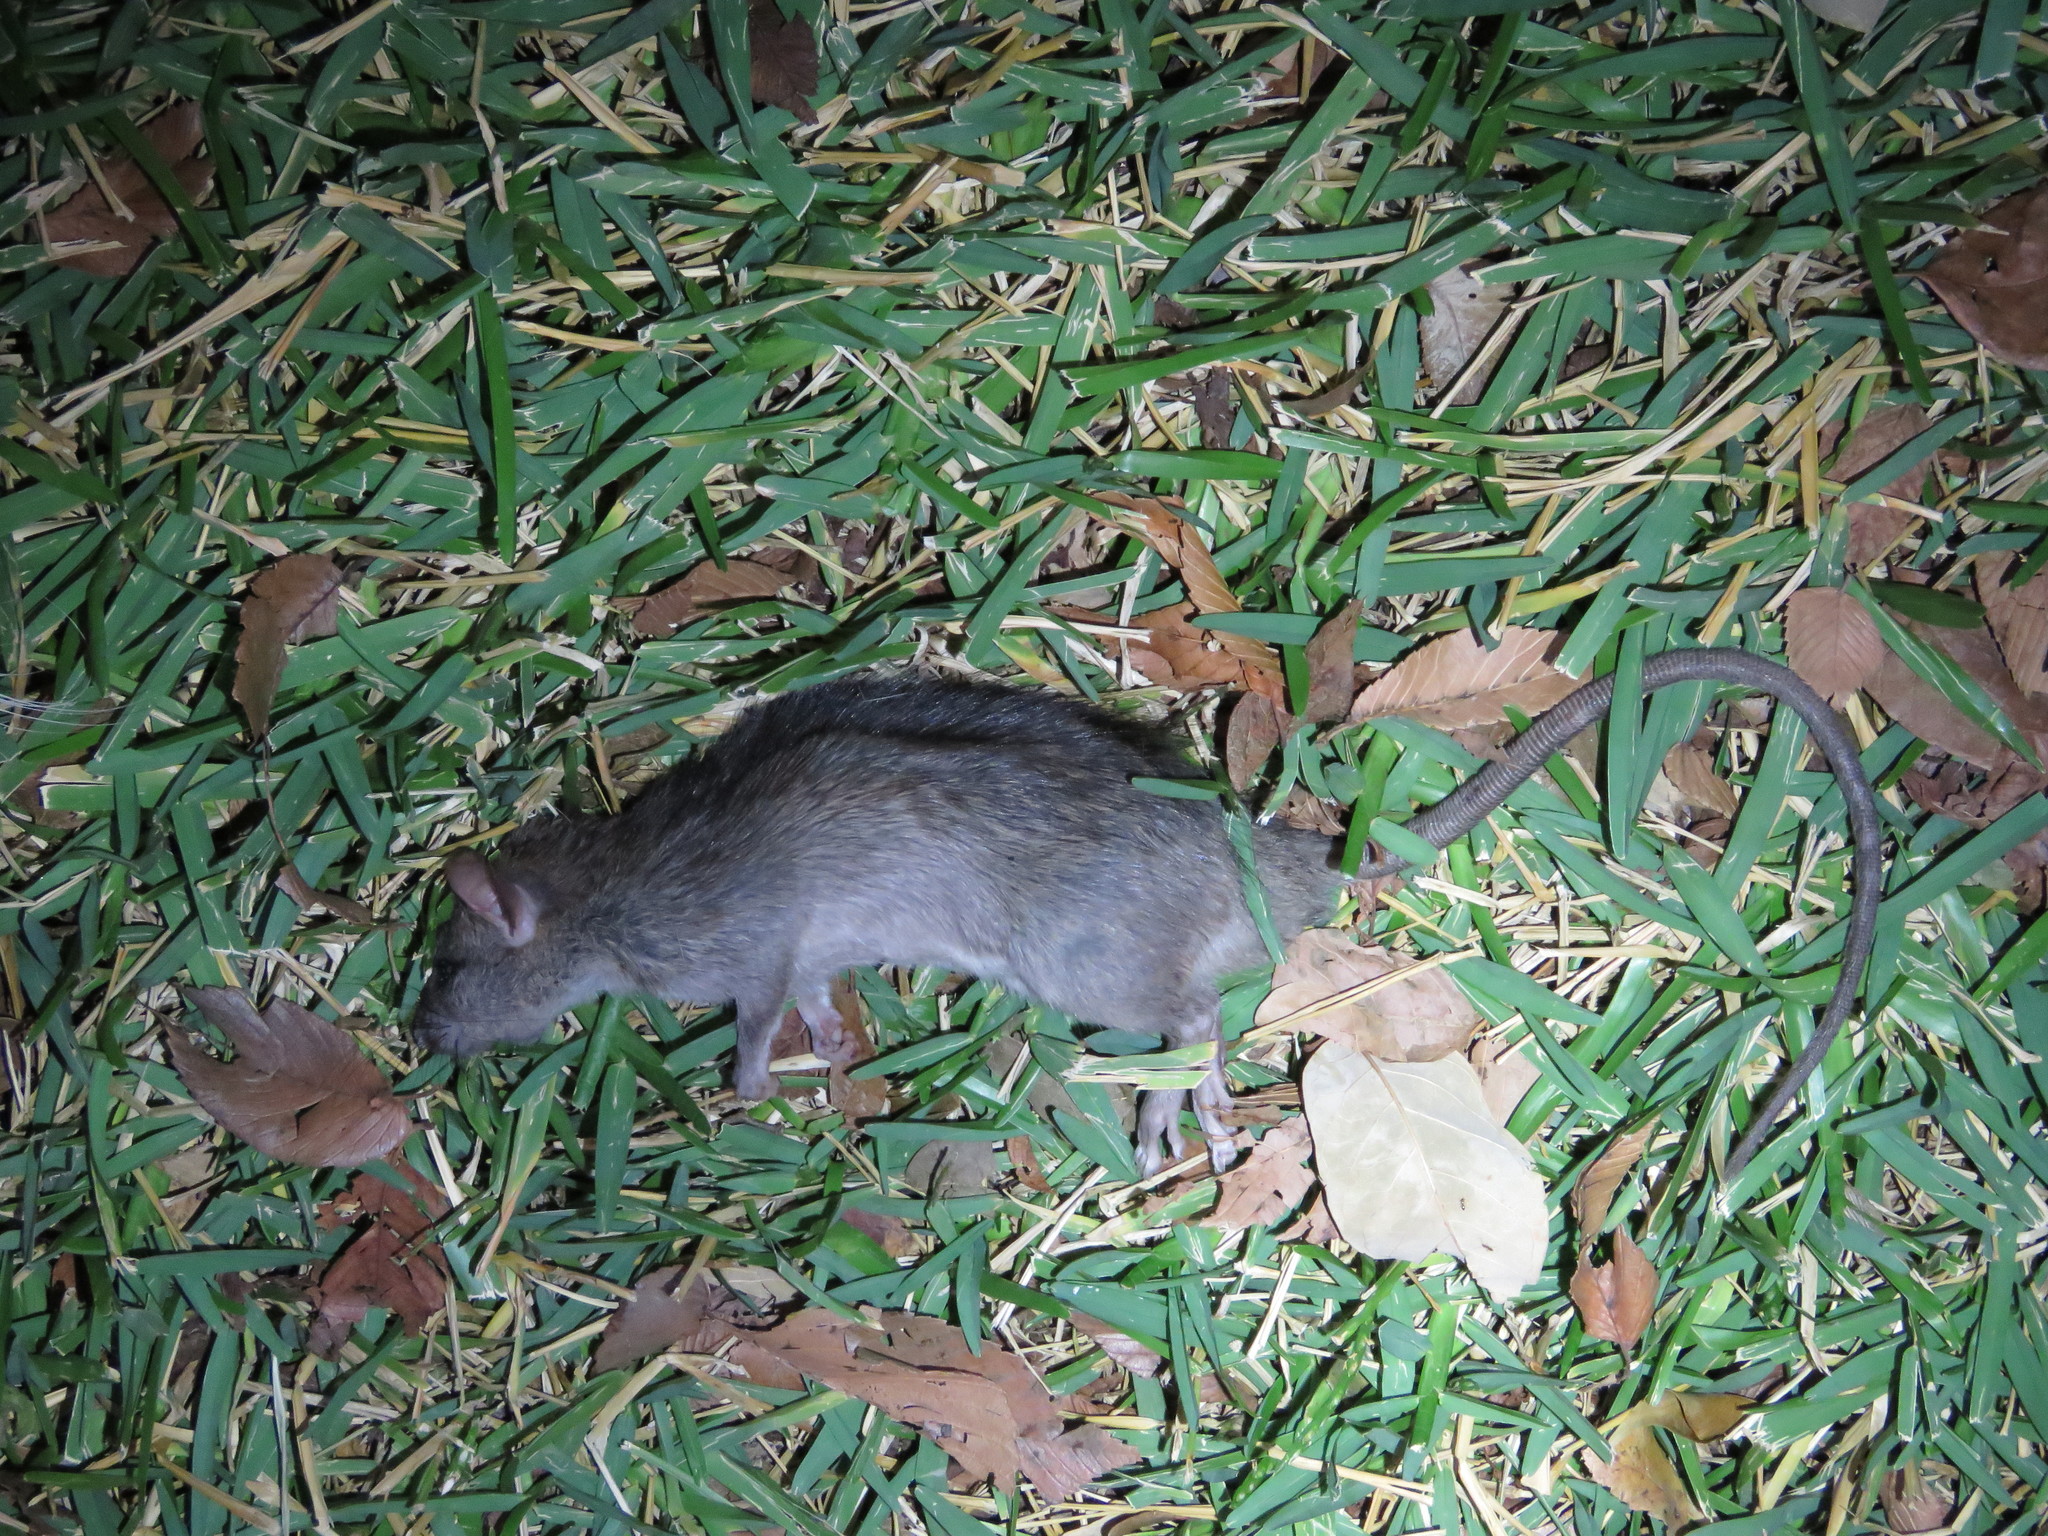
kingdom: Animalia
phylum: Chordata
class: Mammalia
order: Rodentia
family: Muridae
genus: Rattus
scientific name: Rattus rattus
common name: Black rat
